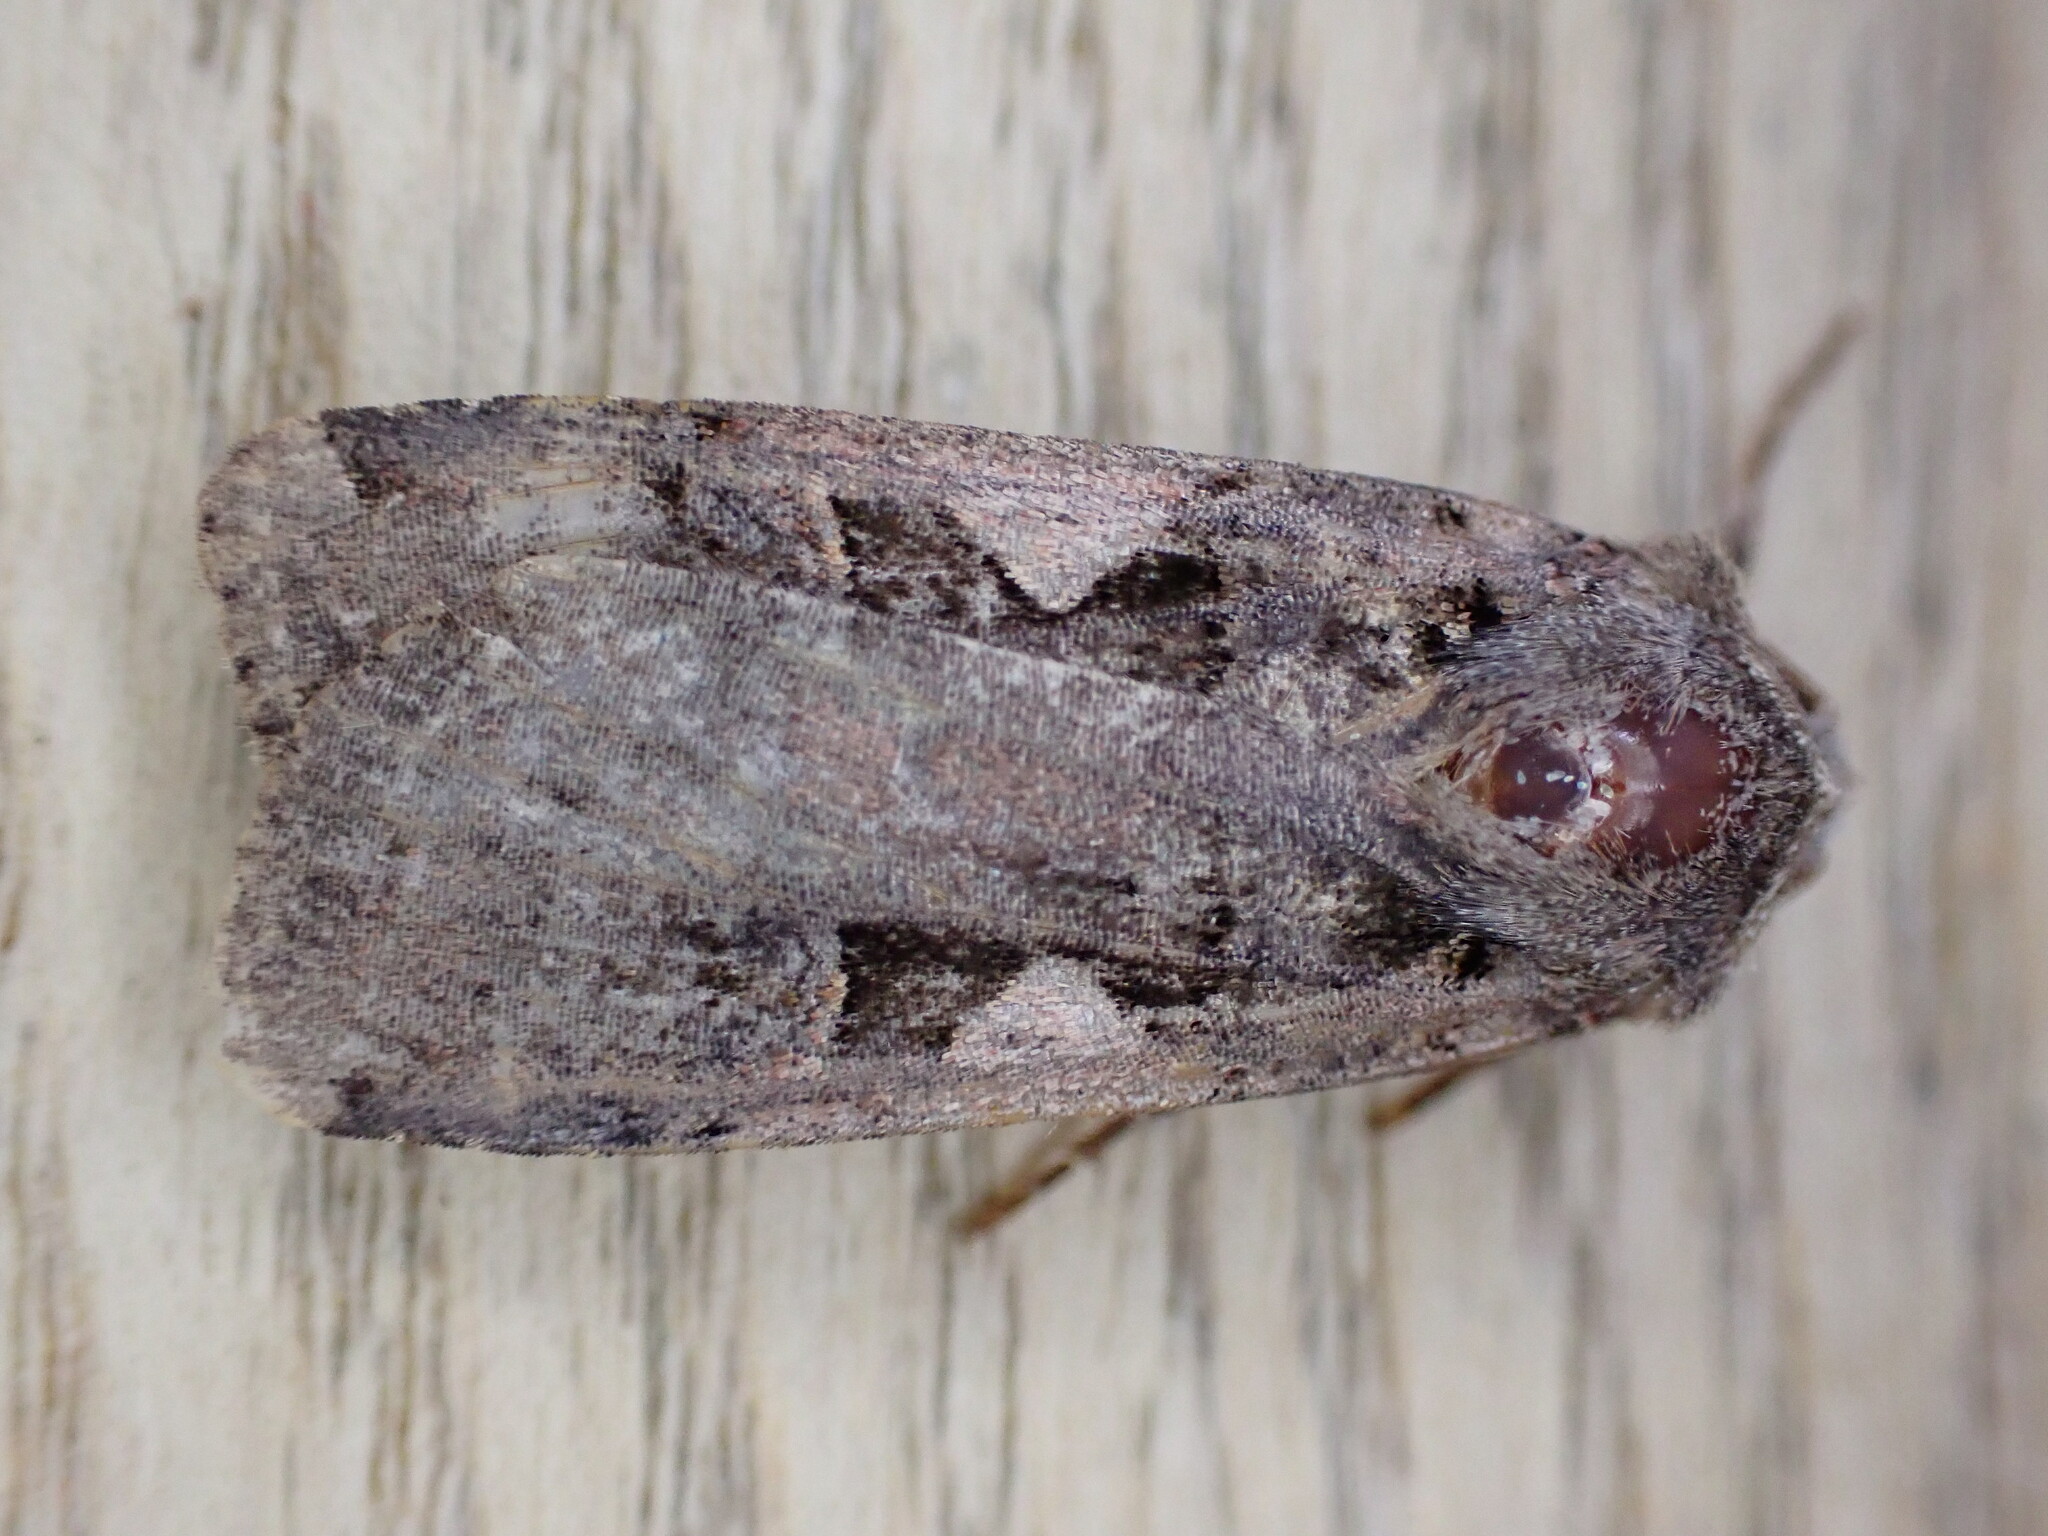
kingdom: Animalia
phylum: Arthropoda
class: Insecta
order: Lepidoptera
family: Noctuidae
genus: Xestia
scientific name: Xestia c-nigrum
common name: Setaceous hebrew character
